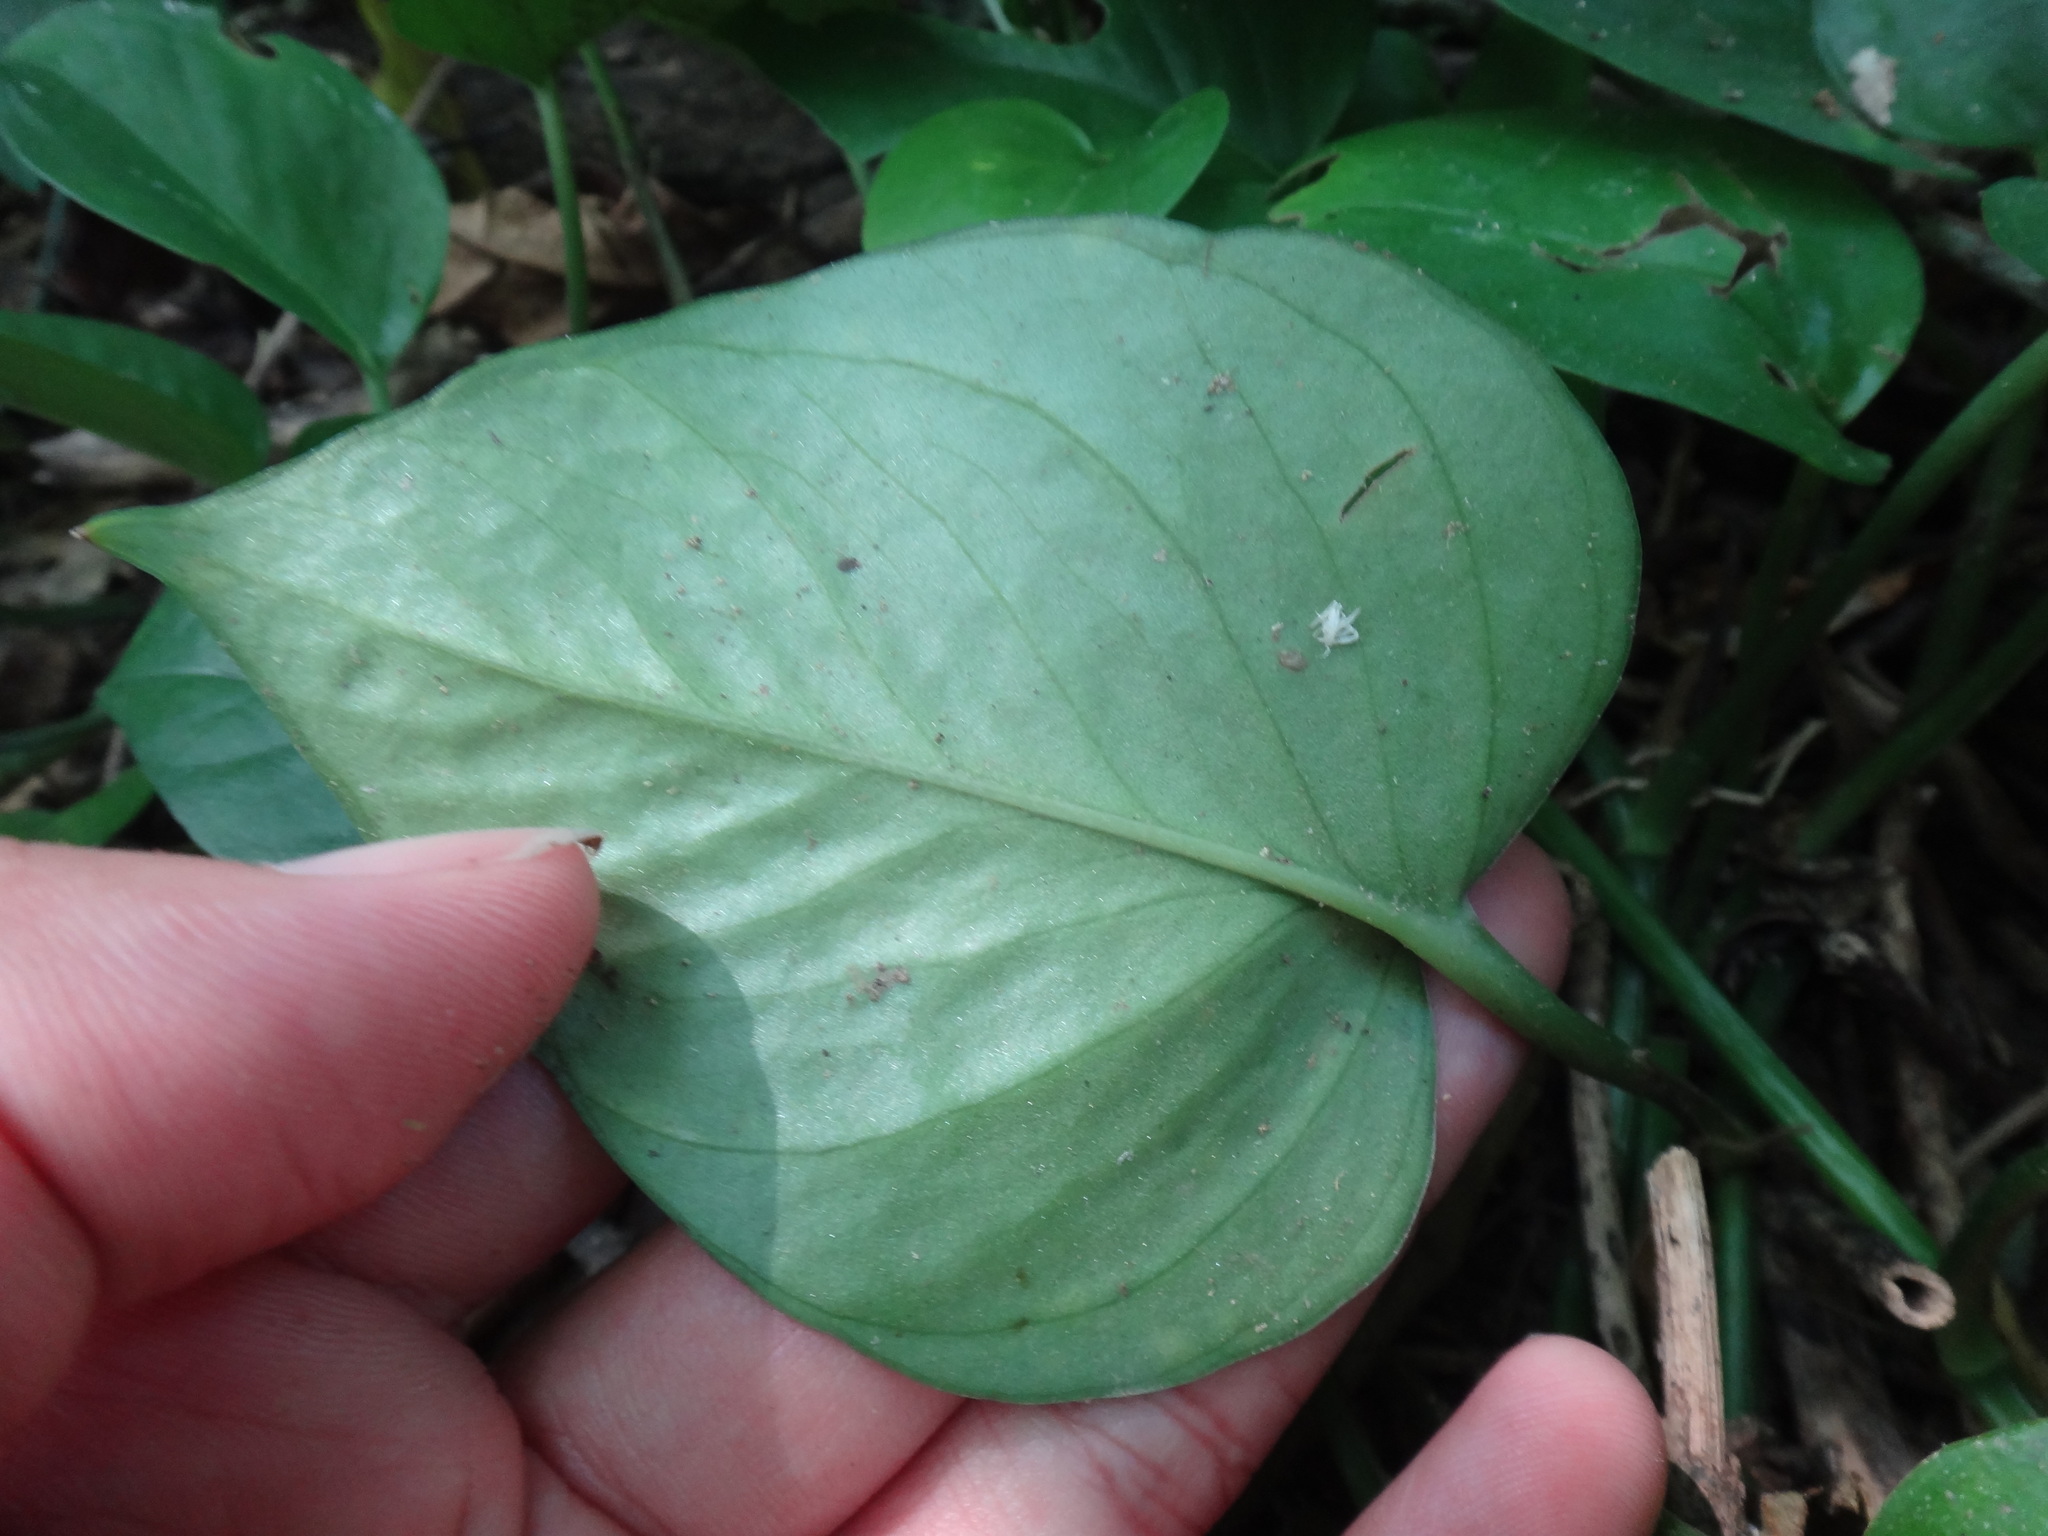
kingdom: Plantae
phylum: Tracheophyta
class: Liliopsida
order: Alismatales
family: Araceae
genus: Epipremnum
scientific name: Epipremnum aureum
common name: Golden hunter's-robe
